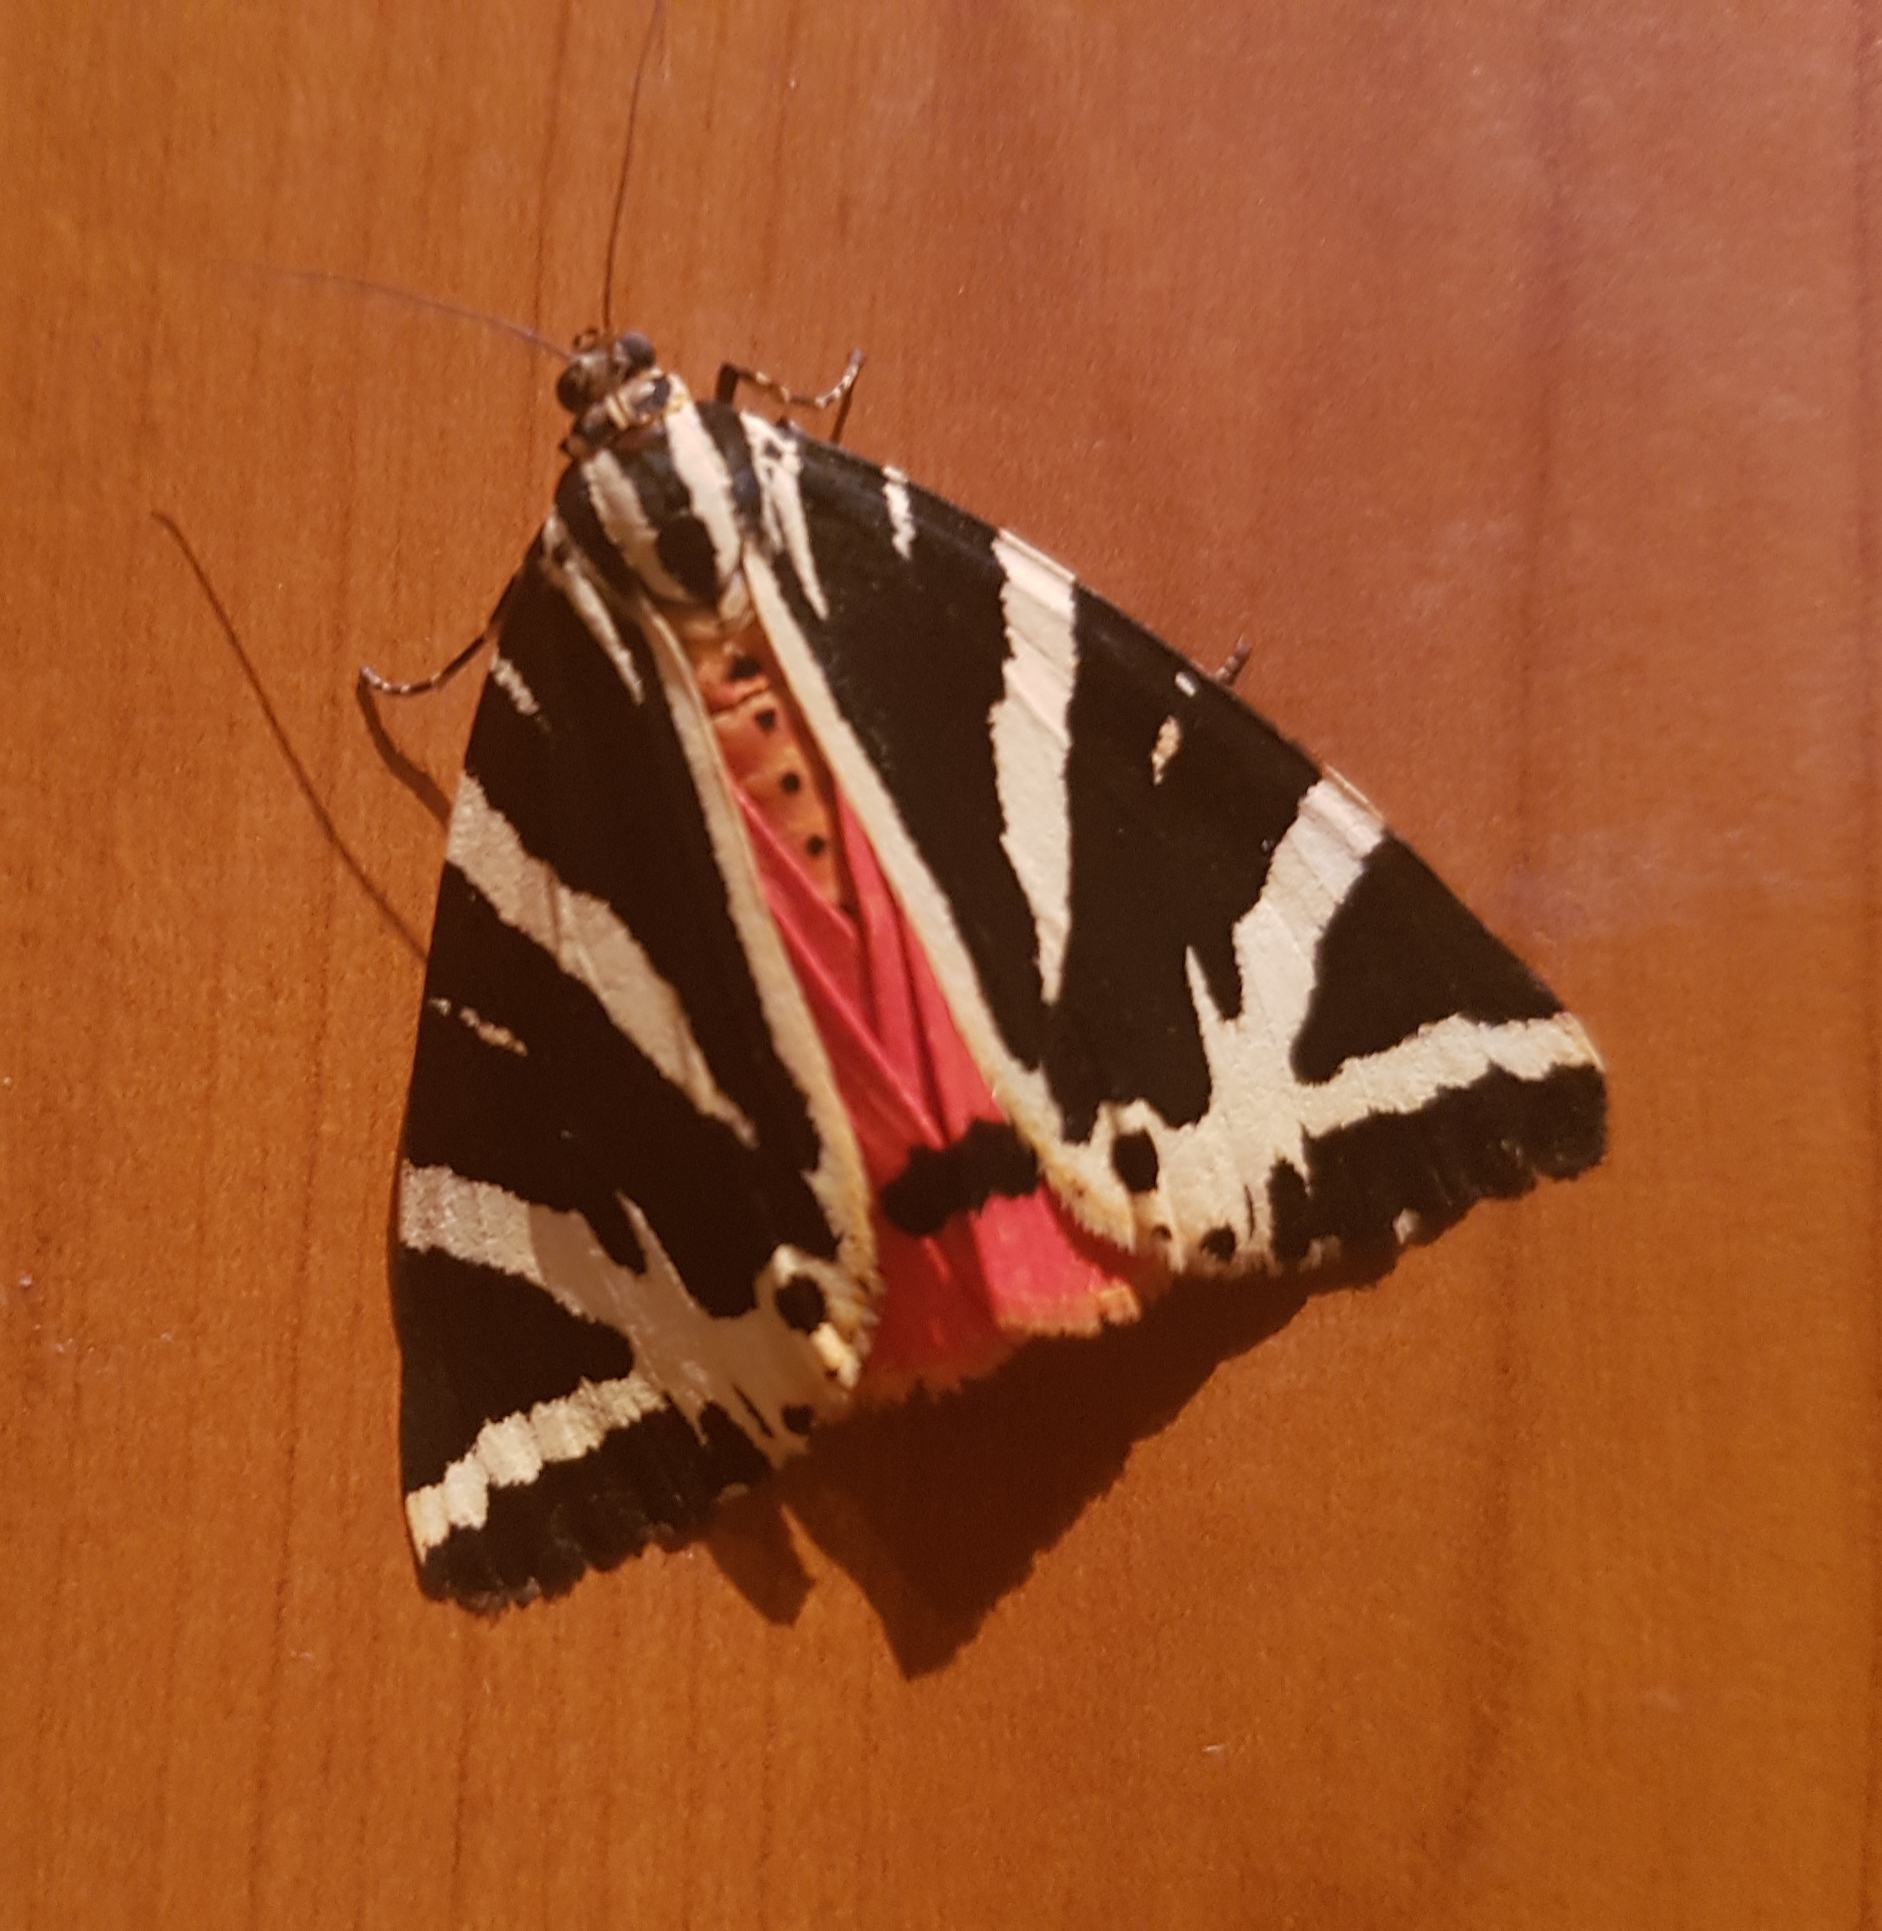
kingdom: Animalia
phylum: Arthropoda
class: Insecta
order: Lepidoptera
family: Erebidae
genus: Euplagia
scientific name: Euplagia quadripunctaria
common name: Jersey tiger
